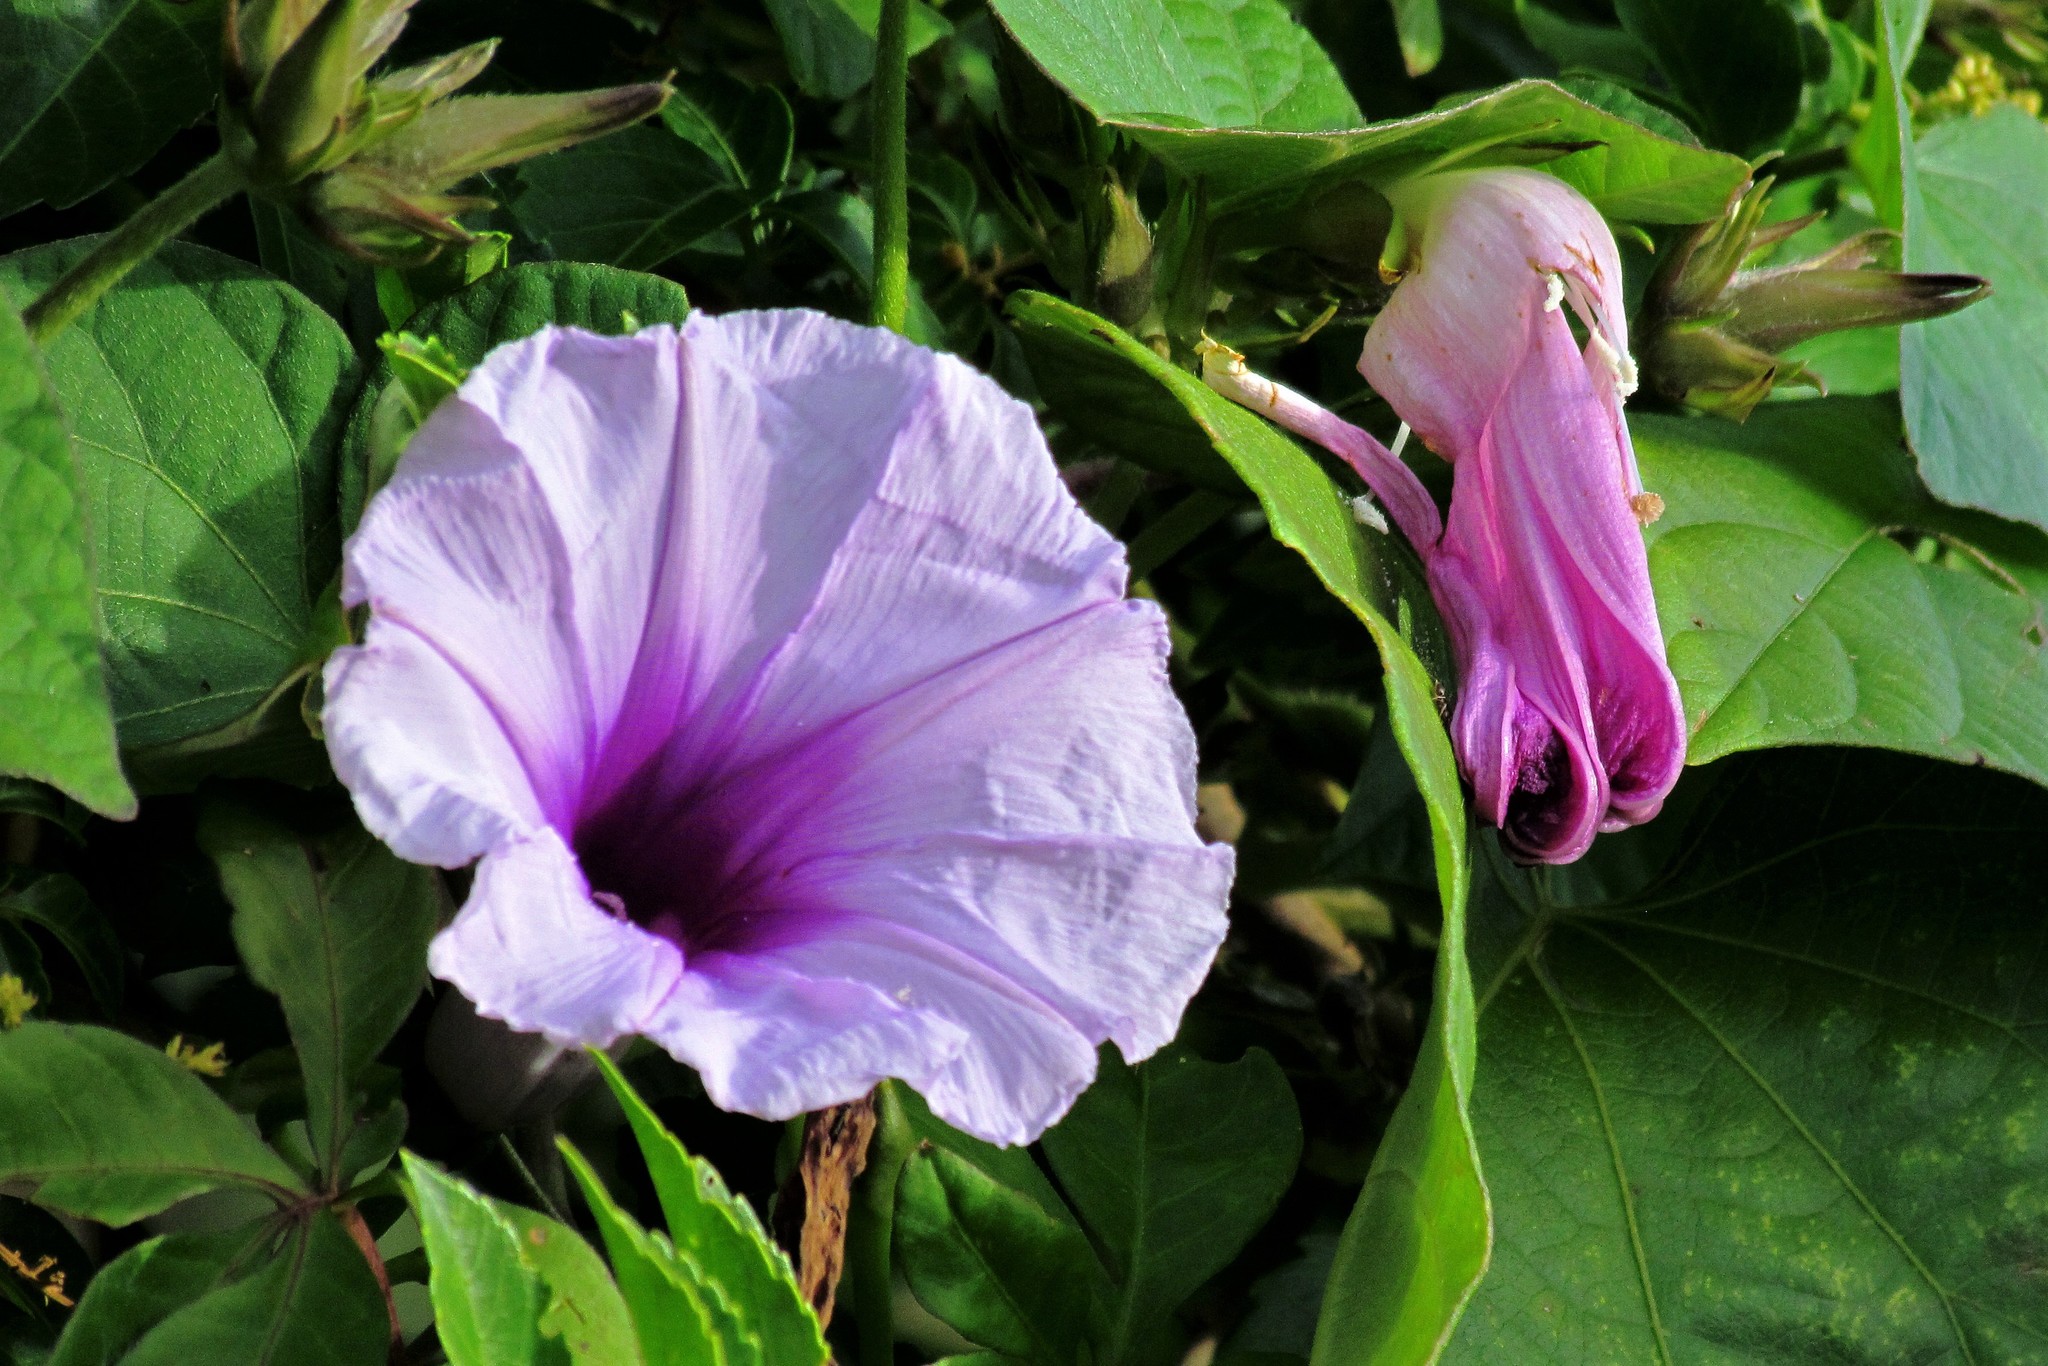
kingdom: Plantae
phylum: Tracheophyta
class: Magnoliopsida
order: Solanales
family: Convolvulaceae
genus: Ipomoea
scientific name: Ipomoea cairica
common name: Mile a minute vine
